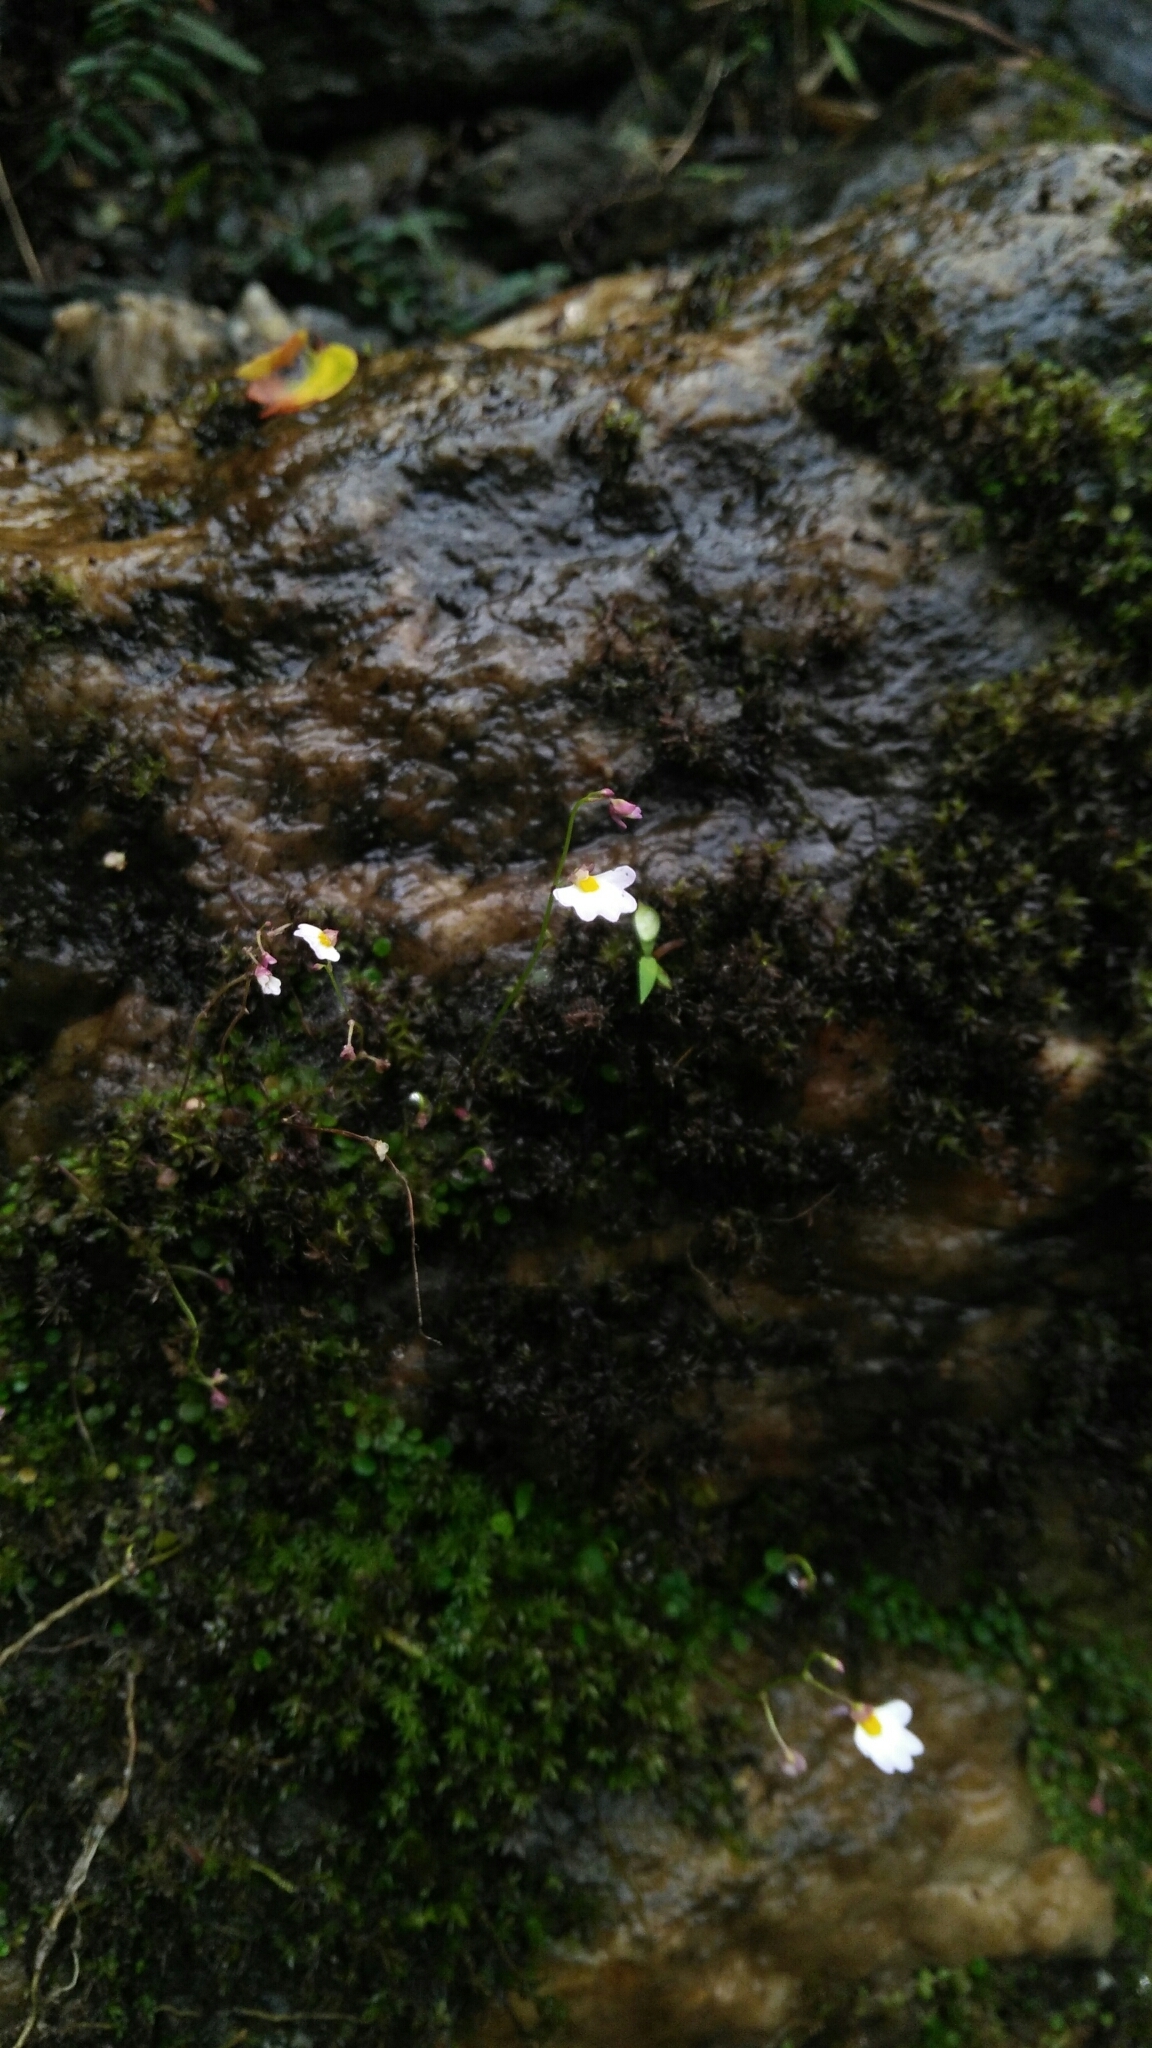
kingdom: Plantae
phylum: Tracheophyta
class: Magnoliopsida
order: Lamiales
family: Lentibulariaceae
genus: Utricularia
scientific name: Utricularia striatula
